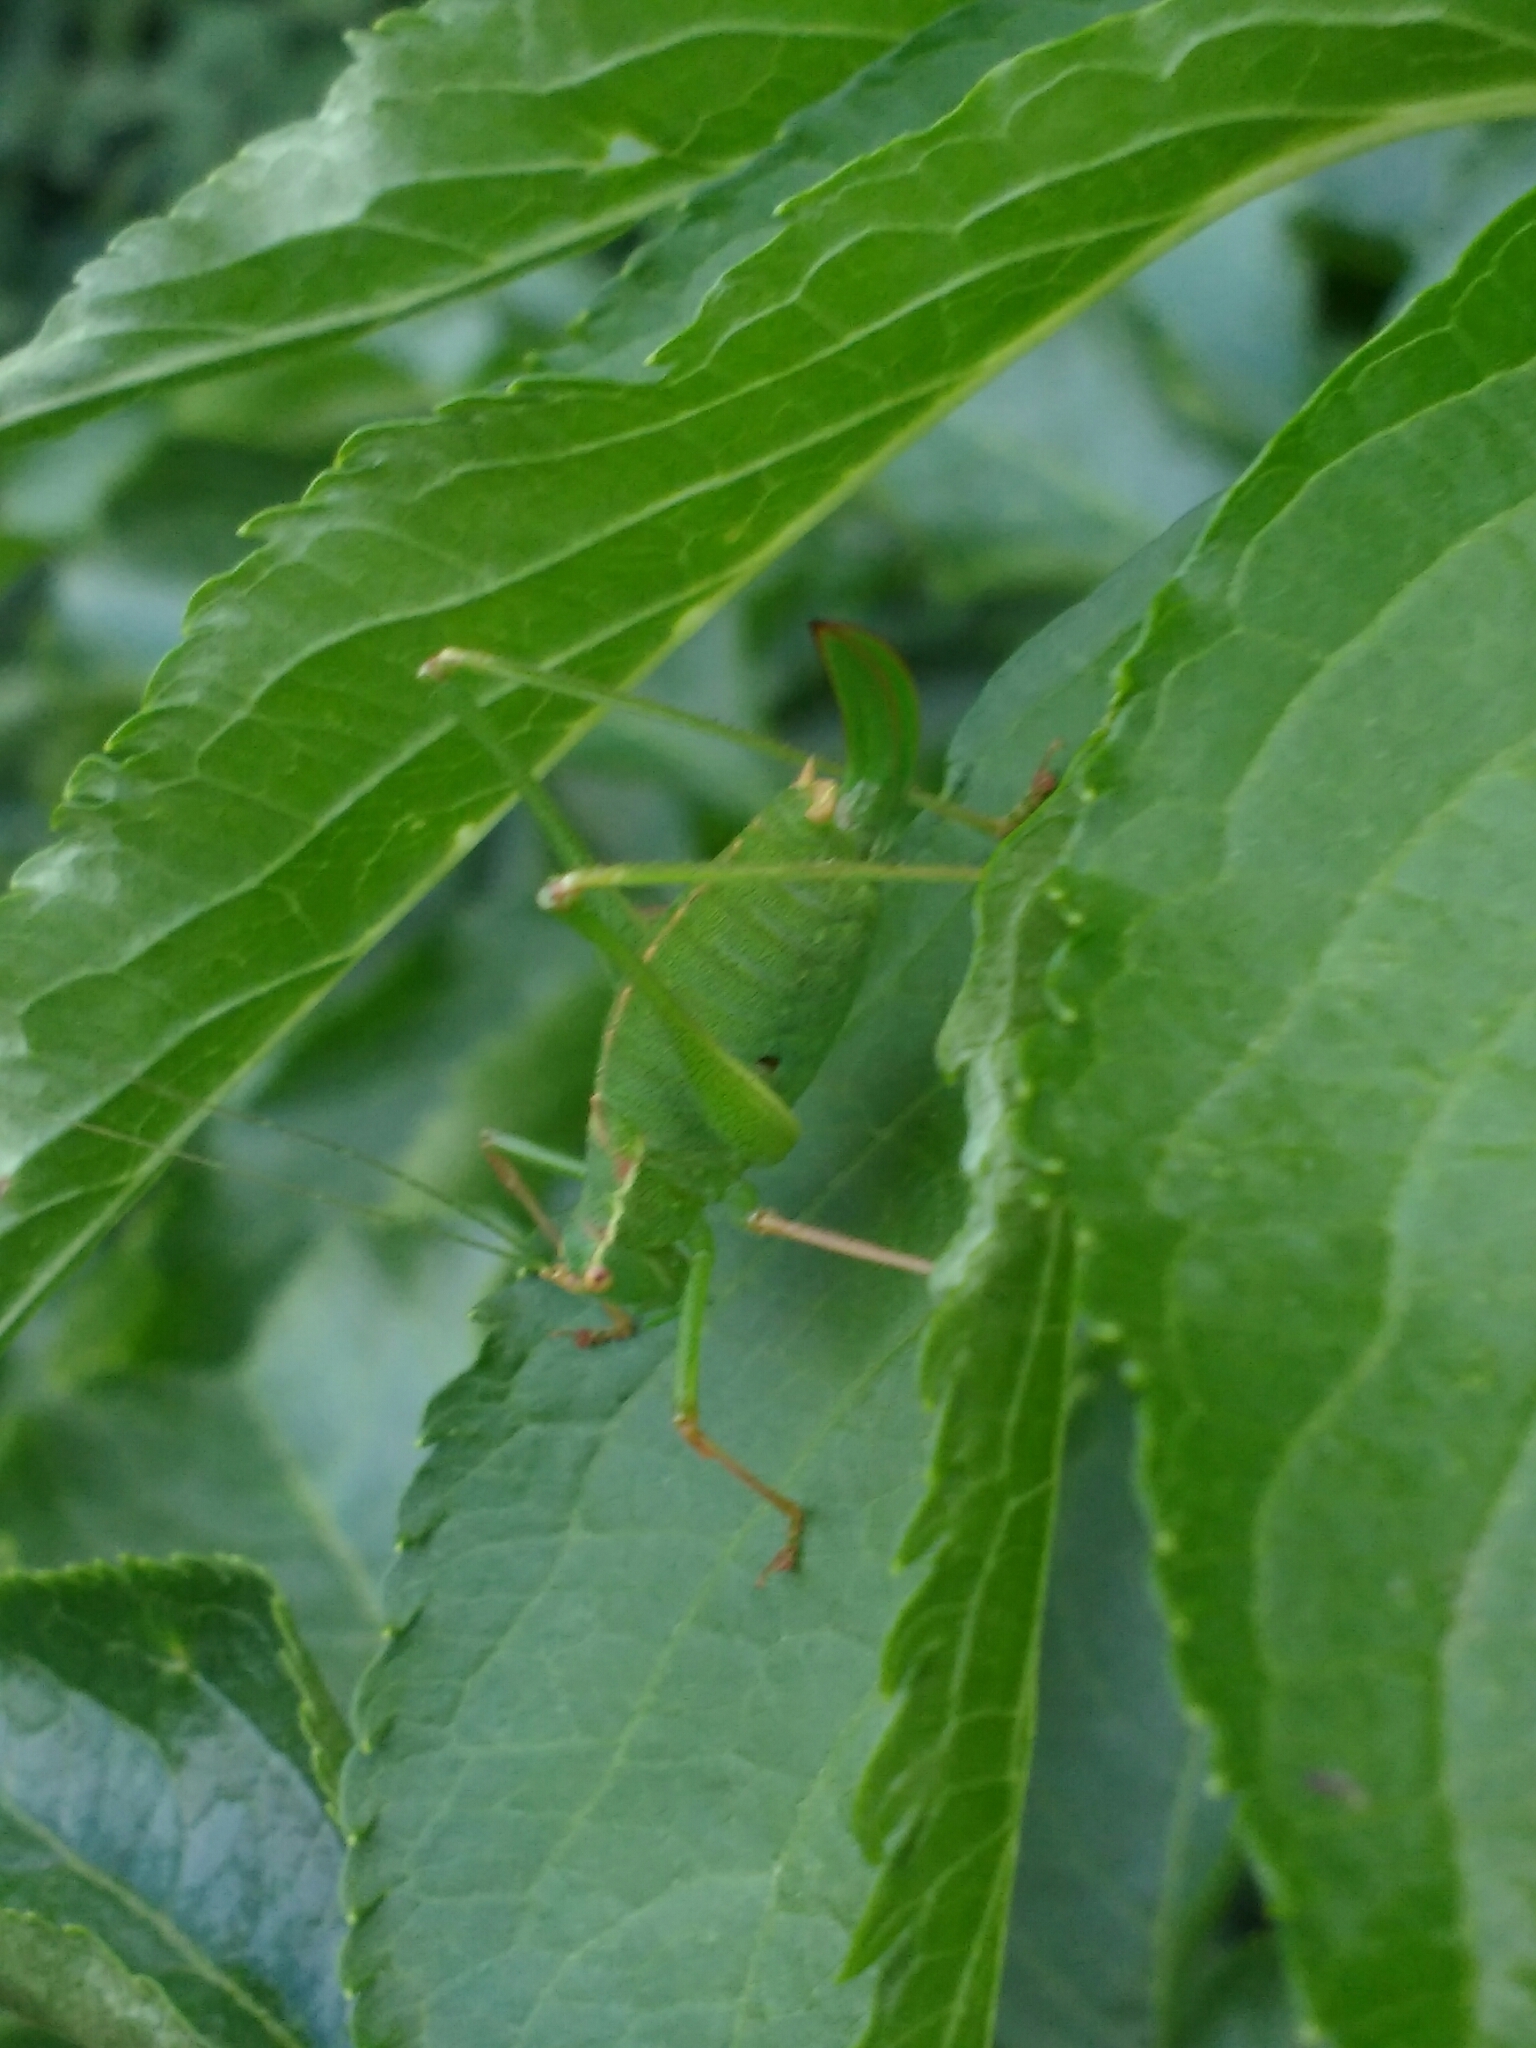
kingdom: Animalia
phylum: Arthropoda
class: Insecta
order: Orthoptera
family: Tettigoniidae
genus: Leptophyes
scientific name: Leptophyes punctatissima
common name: Speckled bush-cricket
